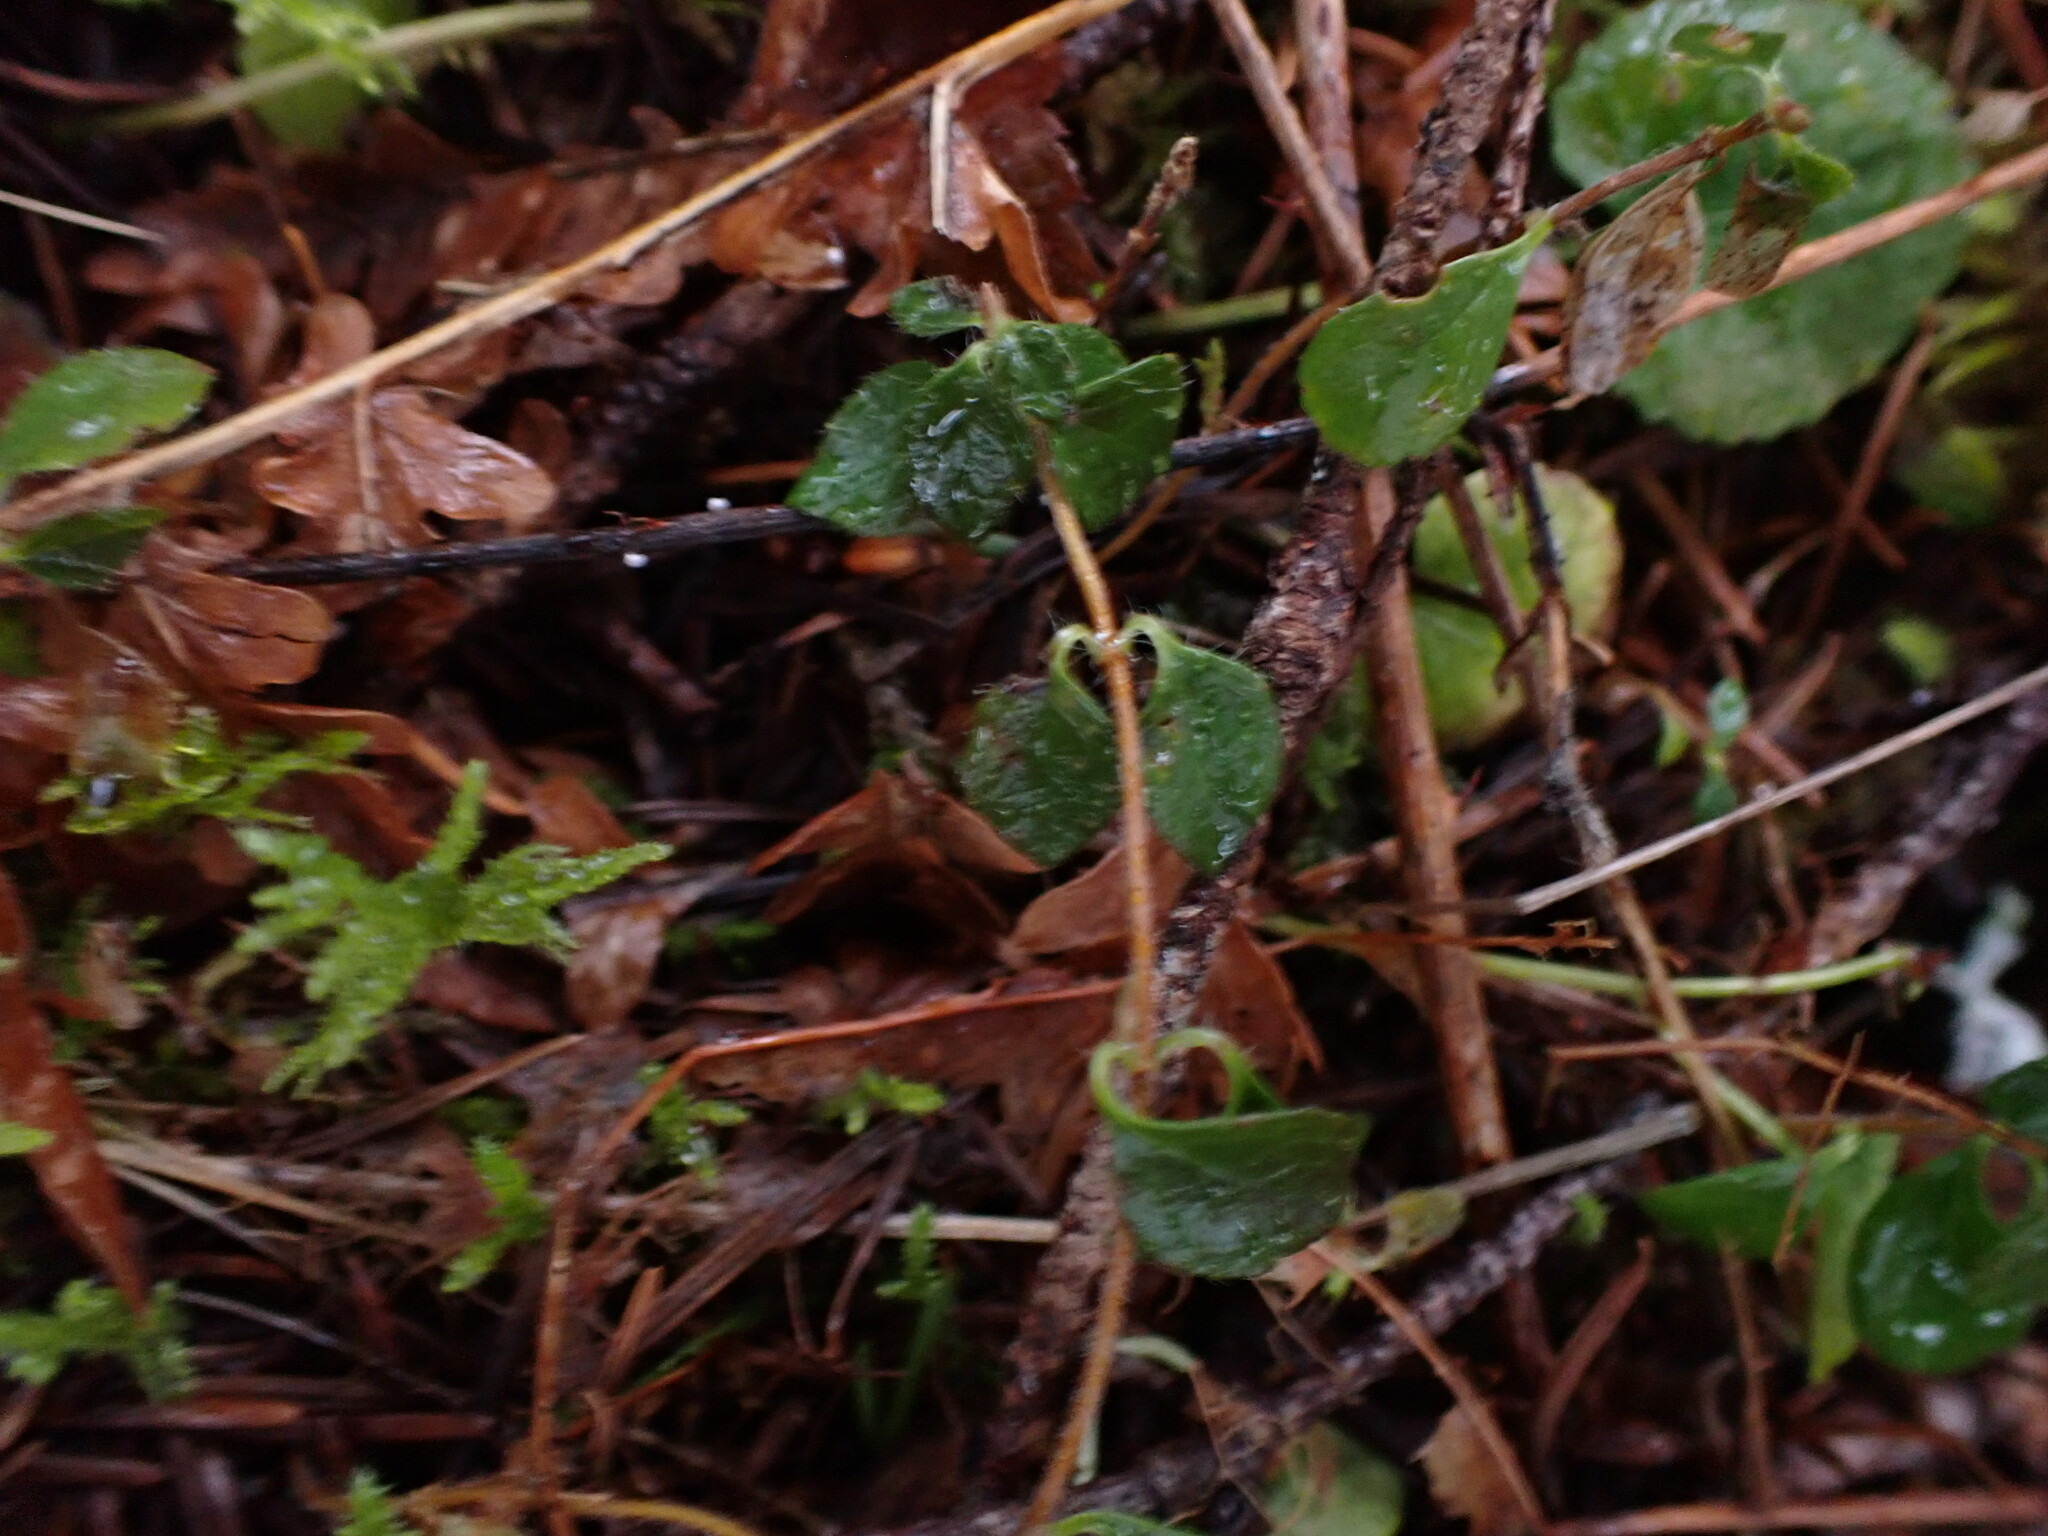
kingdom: Plantae
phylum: Tracheophyta
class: Magnoliopsida
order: Dipsacales
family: Caprifoliaceae
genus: Linnaea
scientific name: Linnaea borealis
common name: Twinflower
